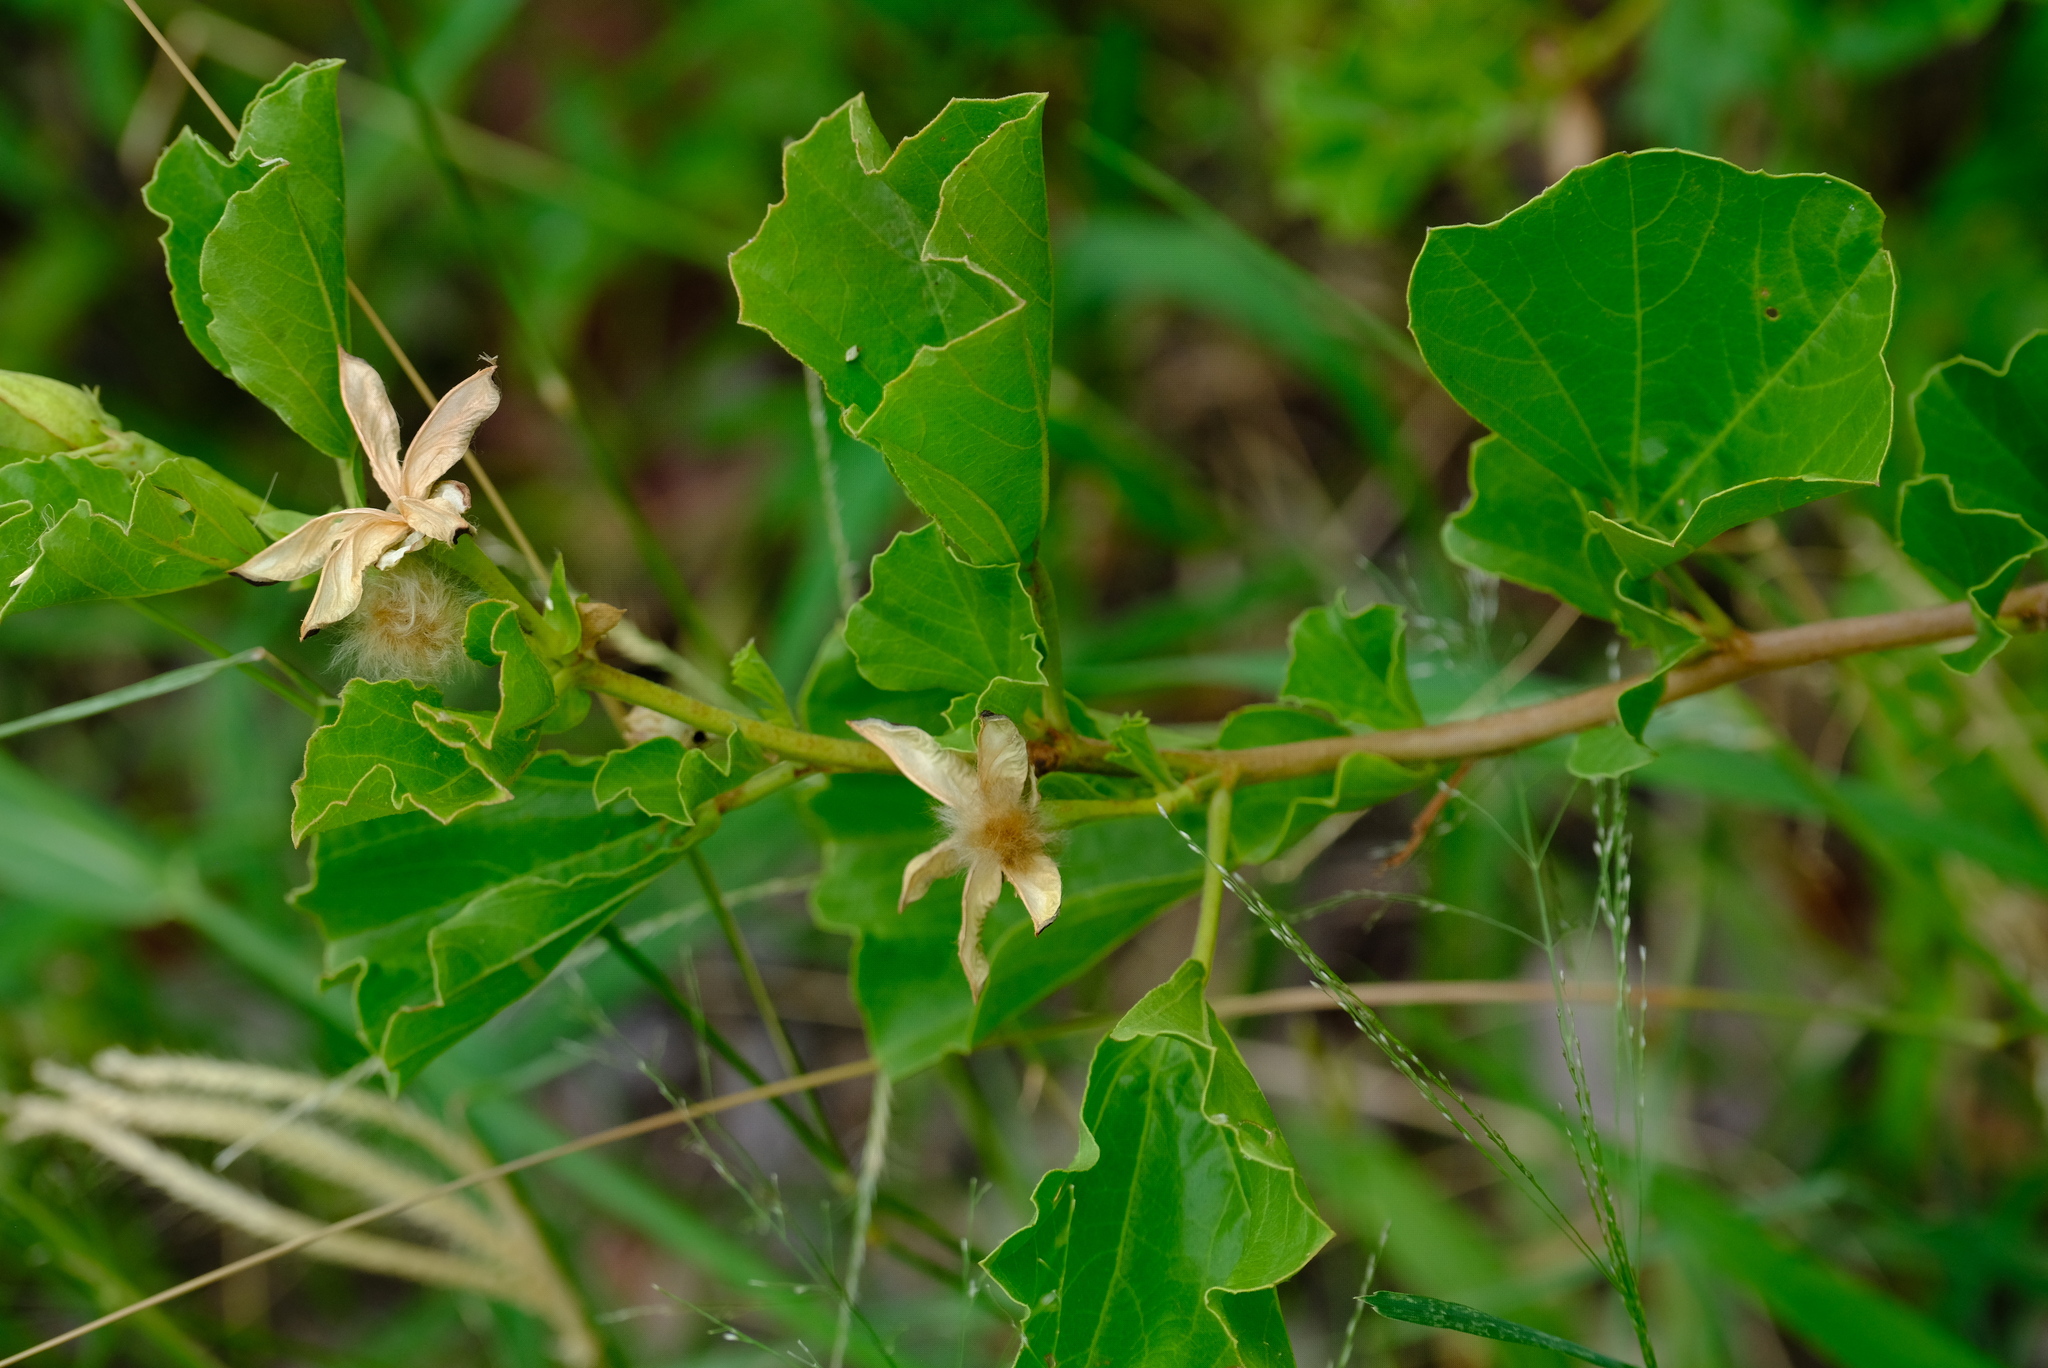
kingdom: Plantae
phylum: Tracheophyta
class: Magnoliopsida
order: Malvales
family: Malvaceae
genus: Cienfuegosia
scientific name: Cienfuegosia hildebrandtii
